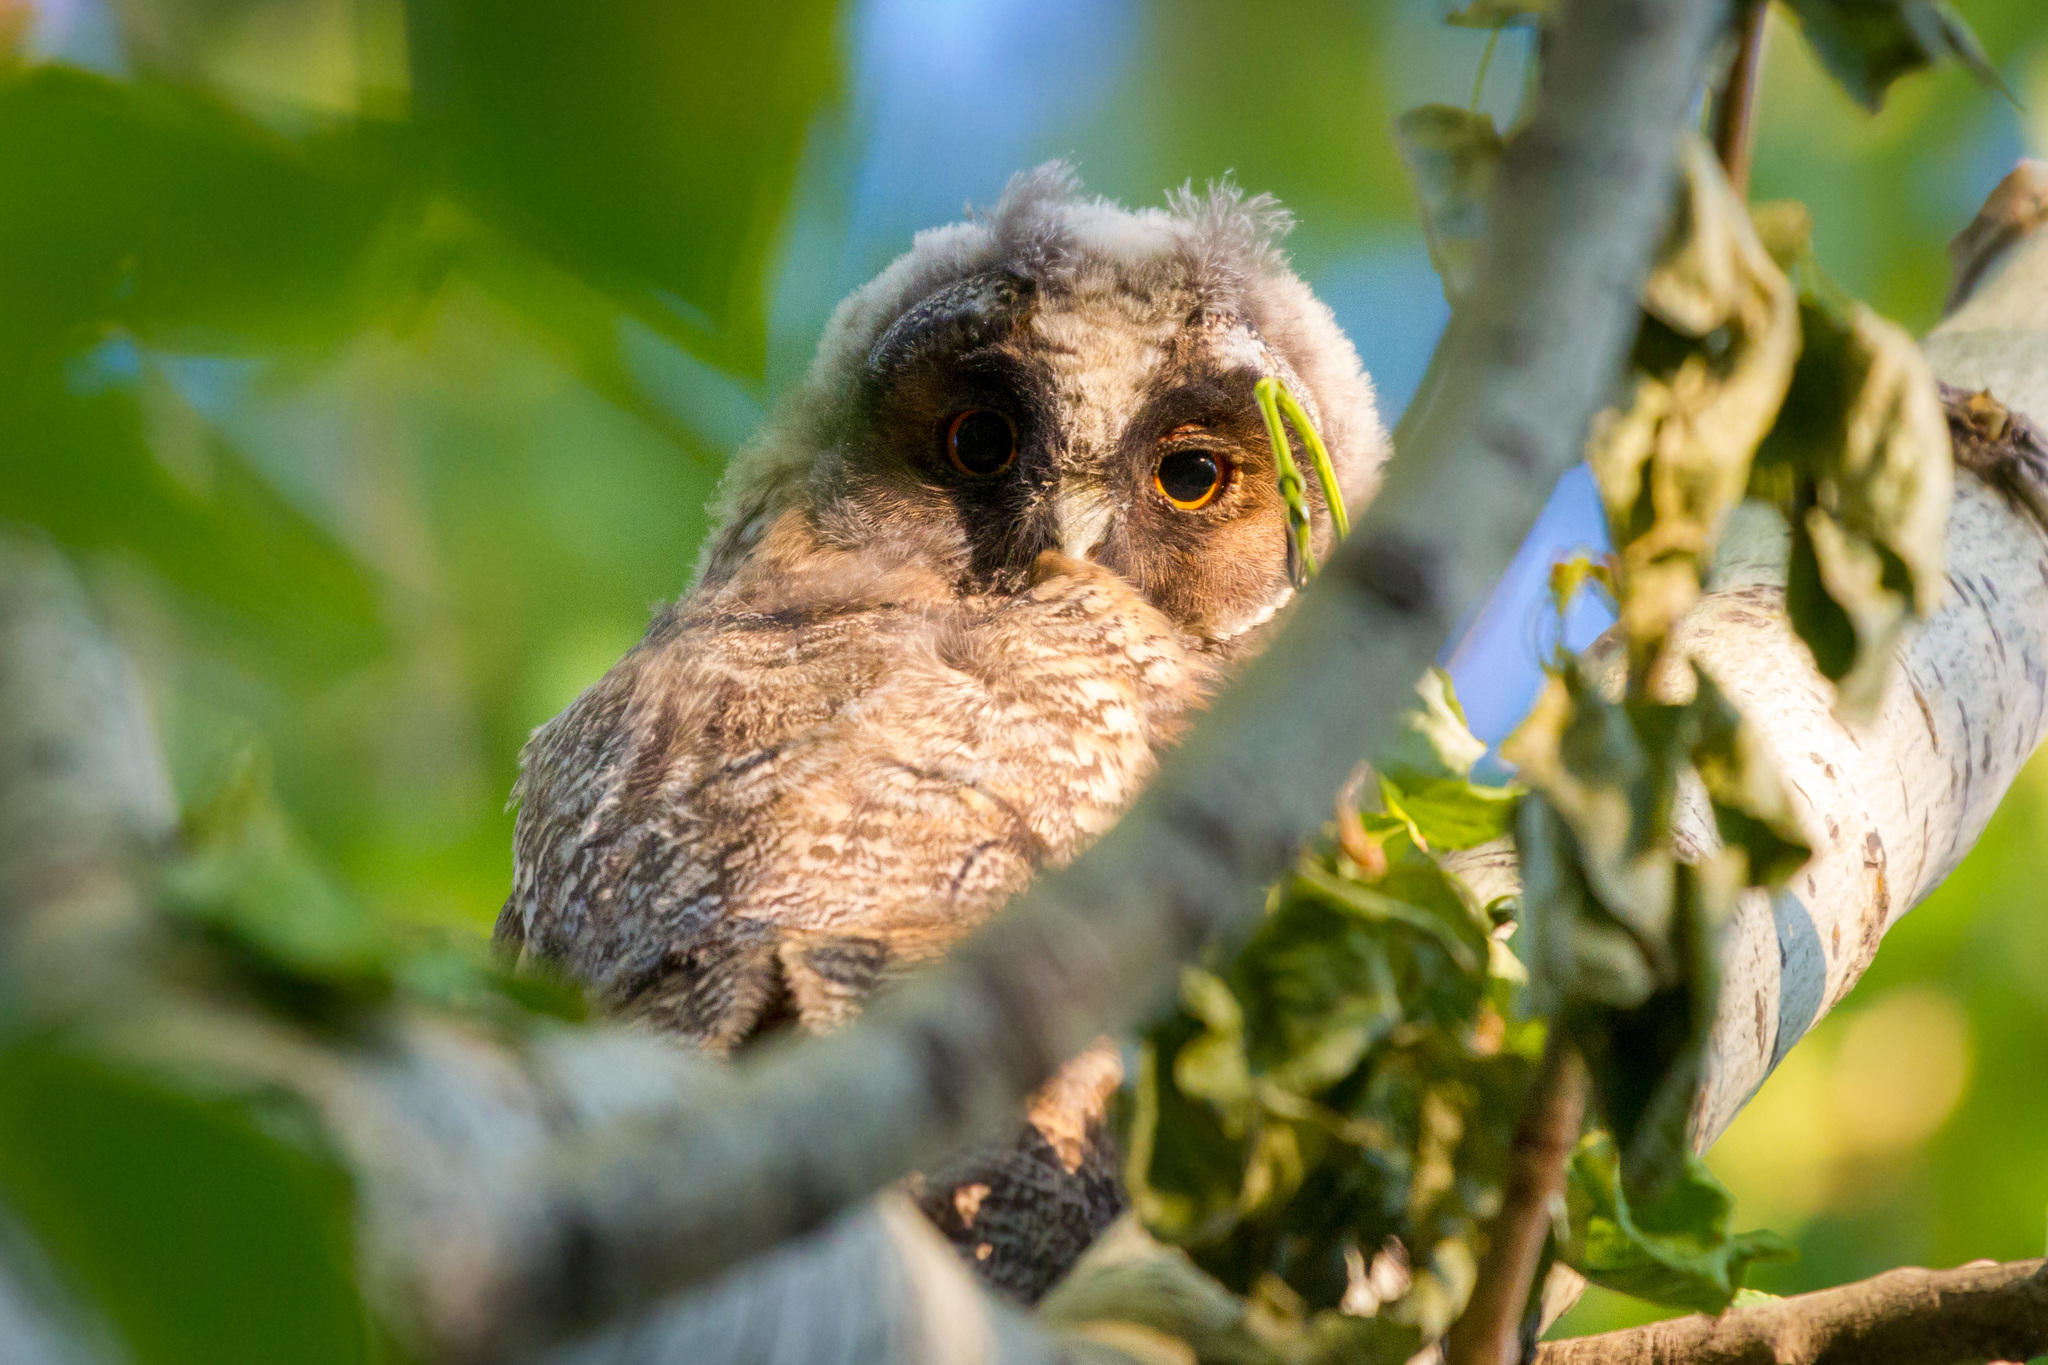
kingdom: Animalia
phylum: Chordata
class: Aves
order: Strigiformes
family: Strigidae
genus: Asio
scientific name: Asio otus
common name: Long-eared owl
